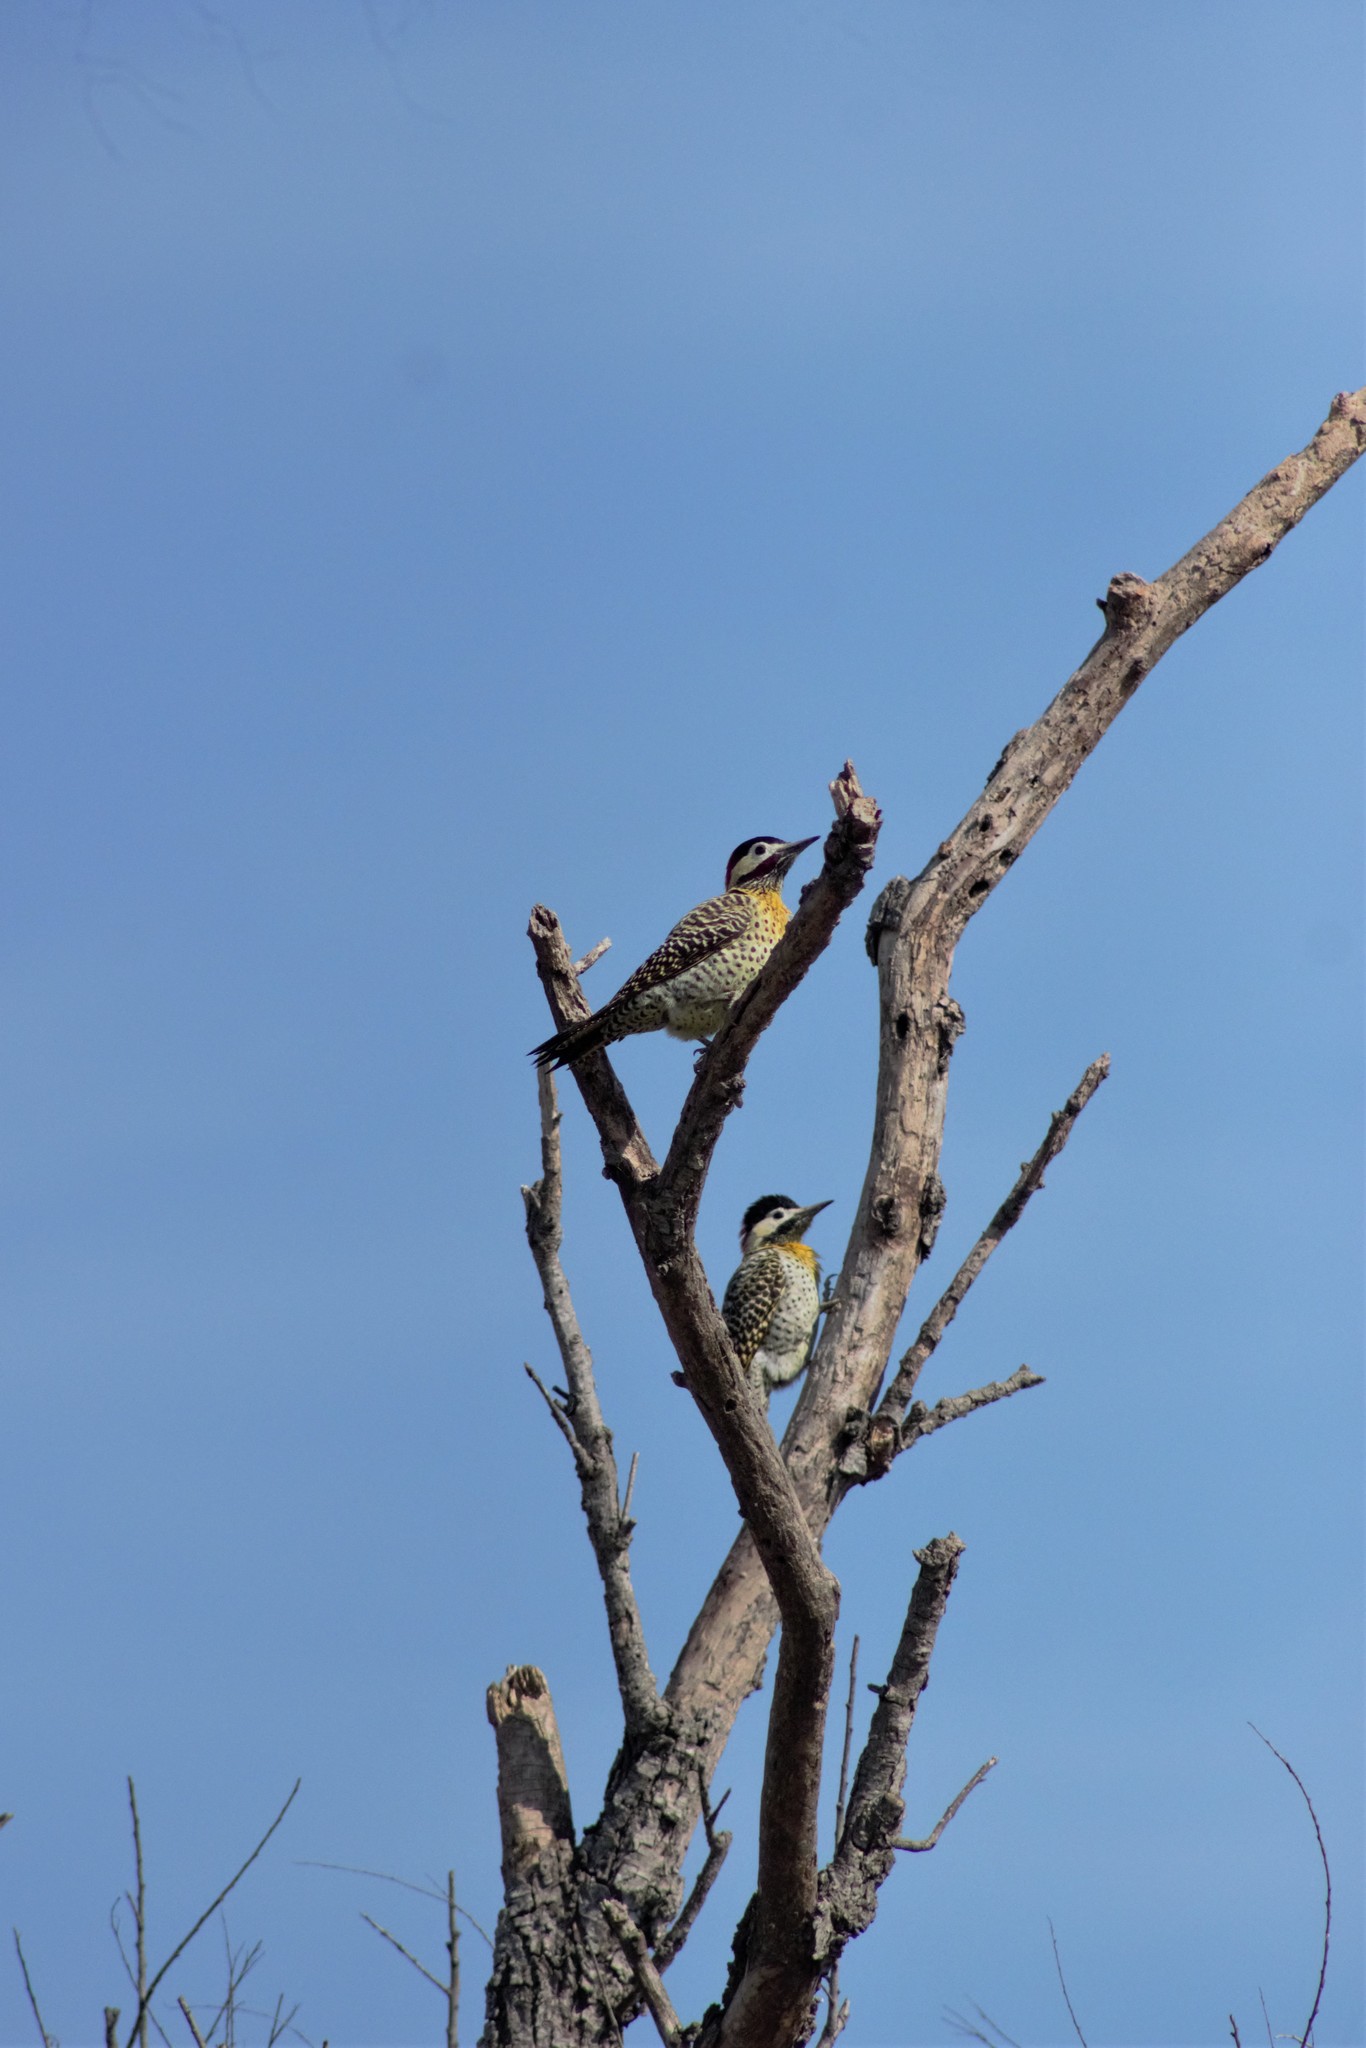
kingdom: Animalia
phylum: Chordata
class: Aves
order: Piciformes
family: Picidae
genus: Colaptes
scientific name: Colaptes melanochloros
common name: Green-barred woodpecker
